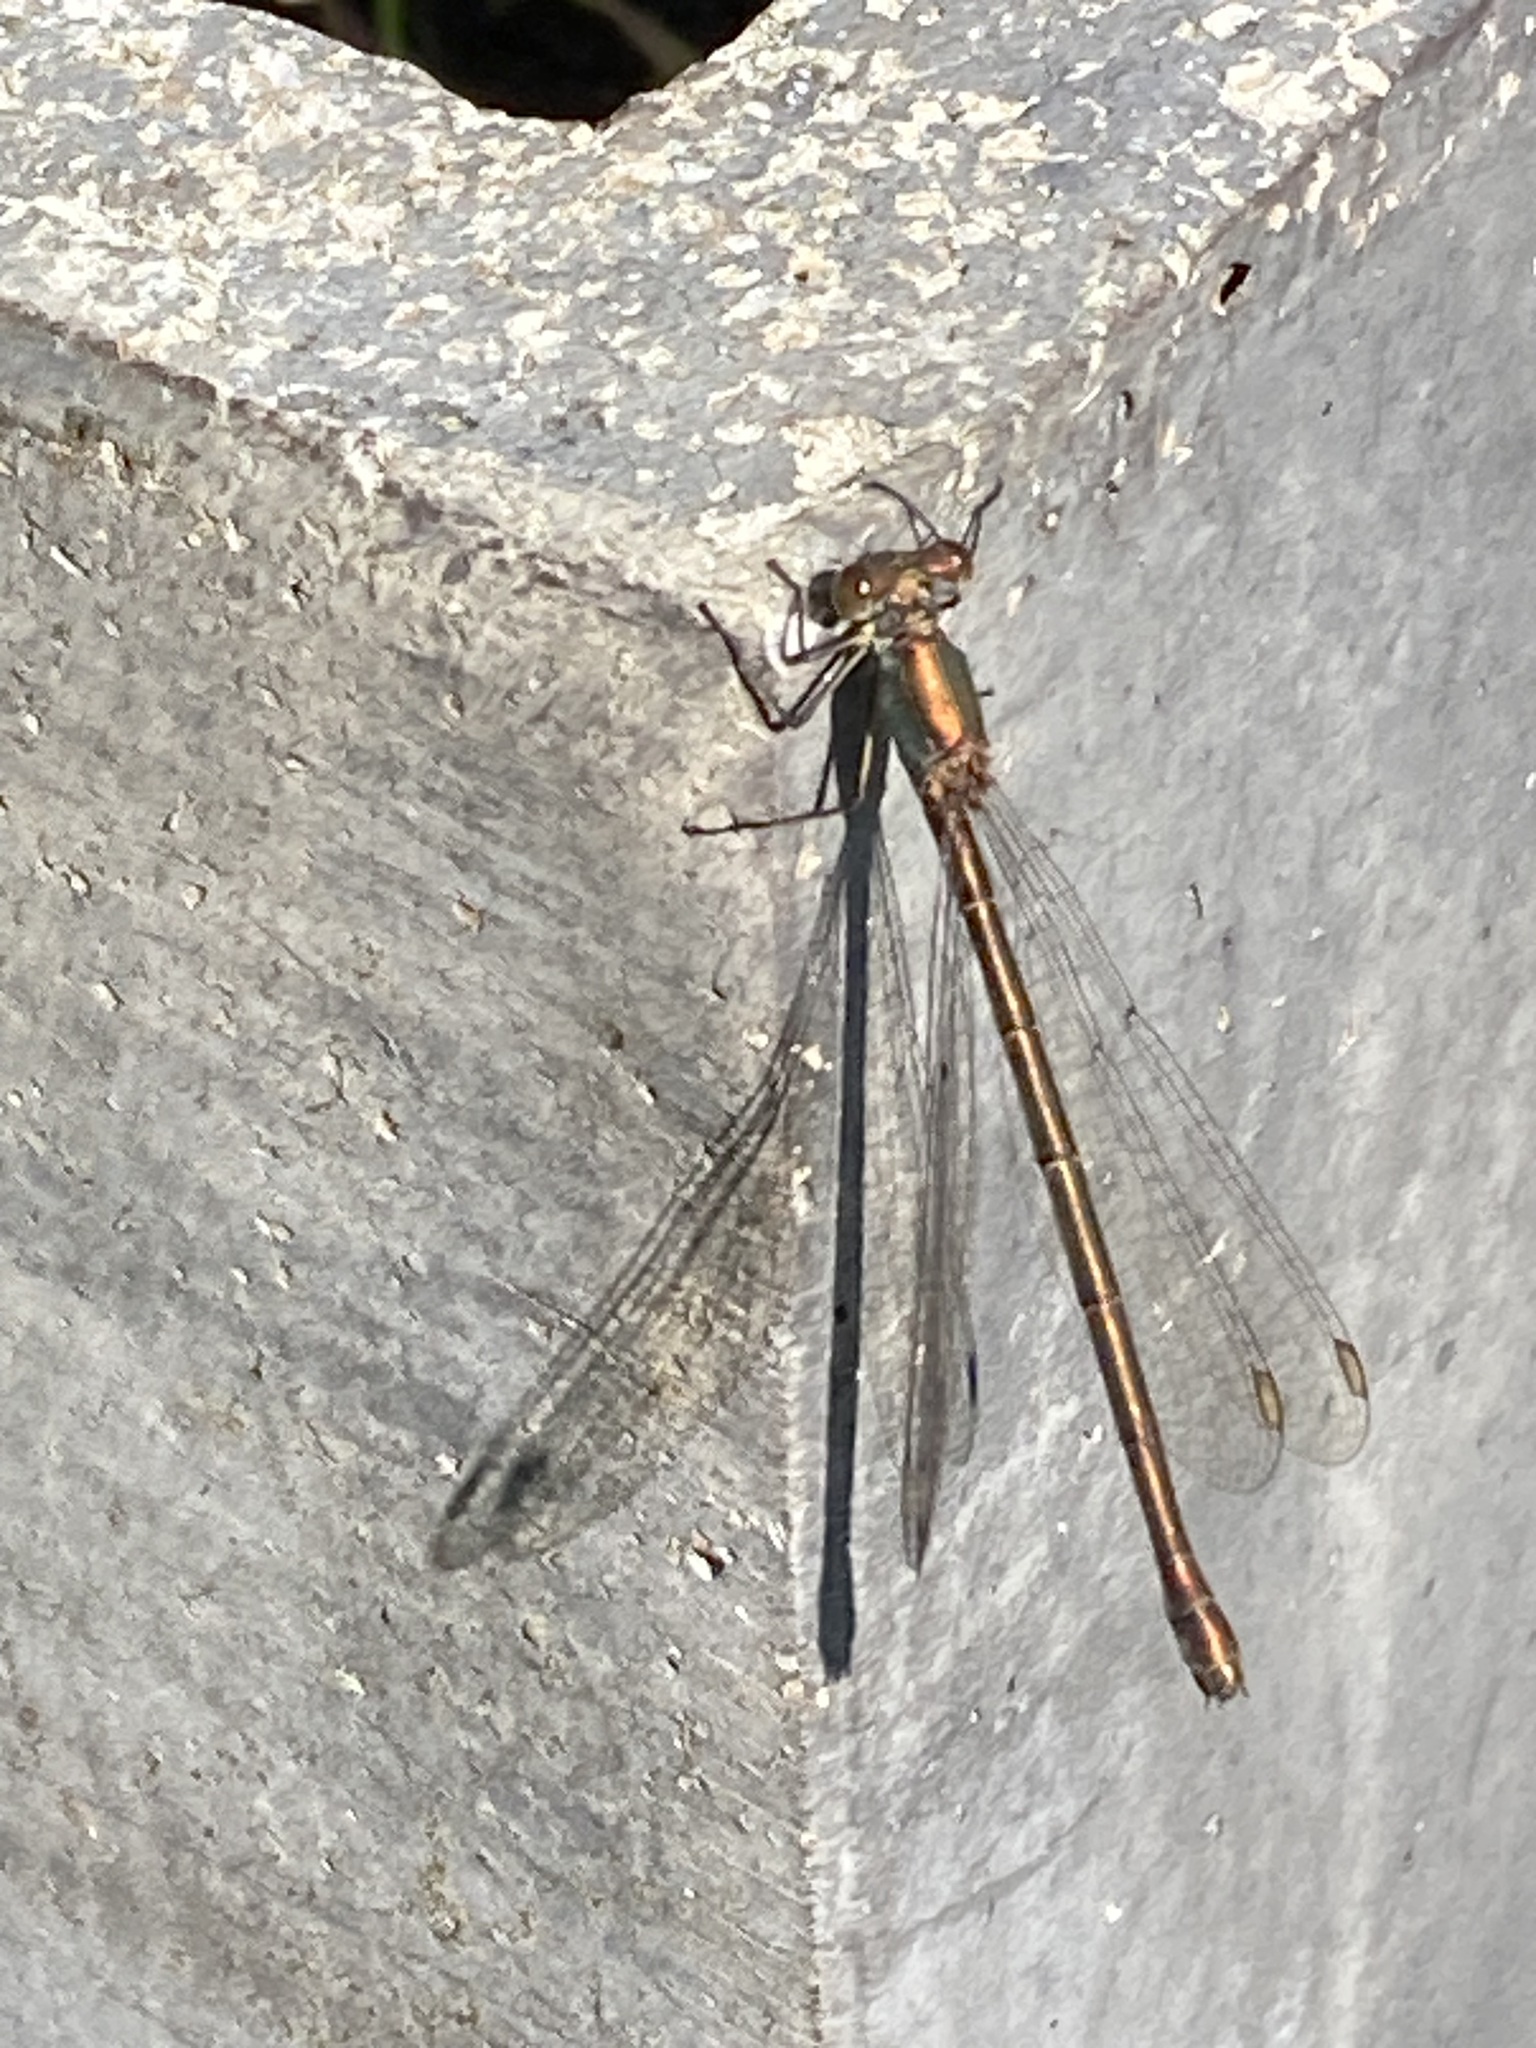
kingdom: Animalia
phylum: Arthropoda
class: Insecta
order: Odonata
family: Lestidae
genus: Chalcolestes
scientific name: Chalcolestes viridis
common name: Green emerald damselfly
